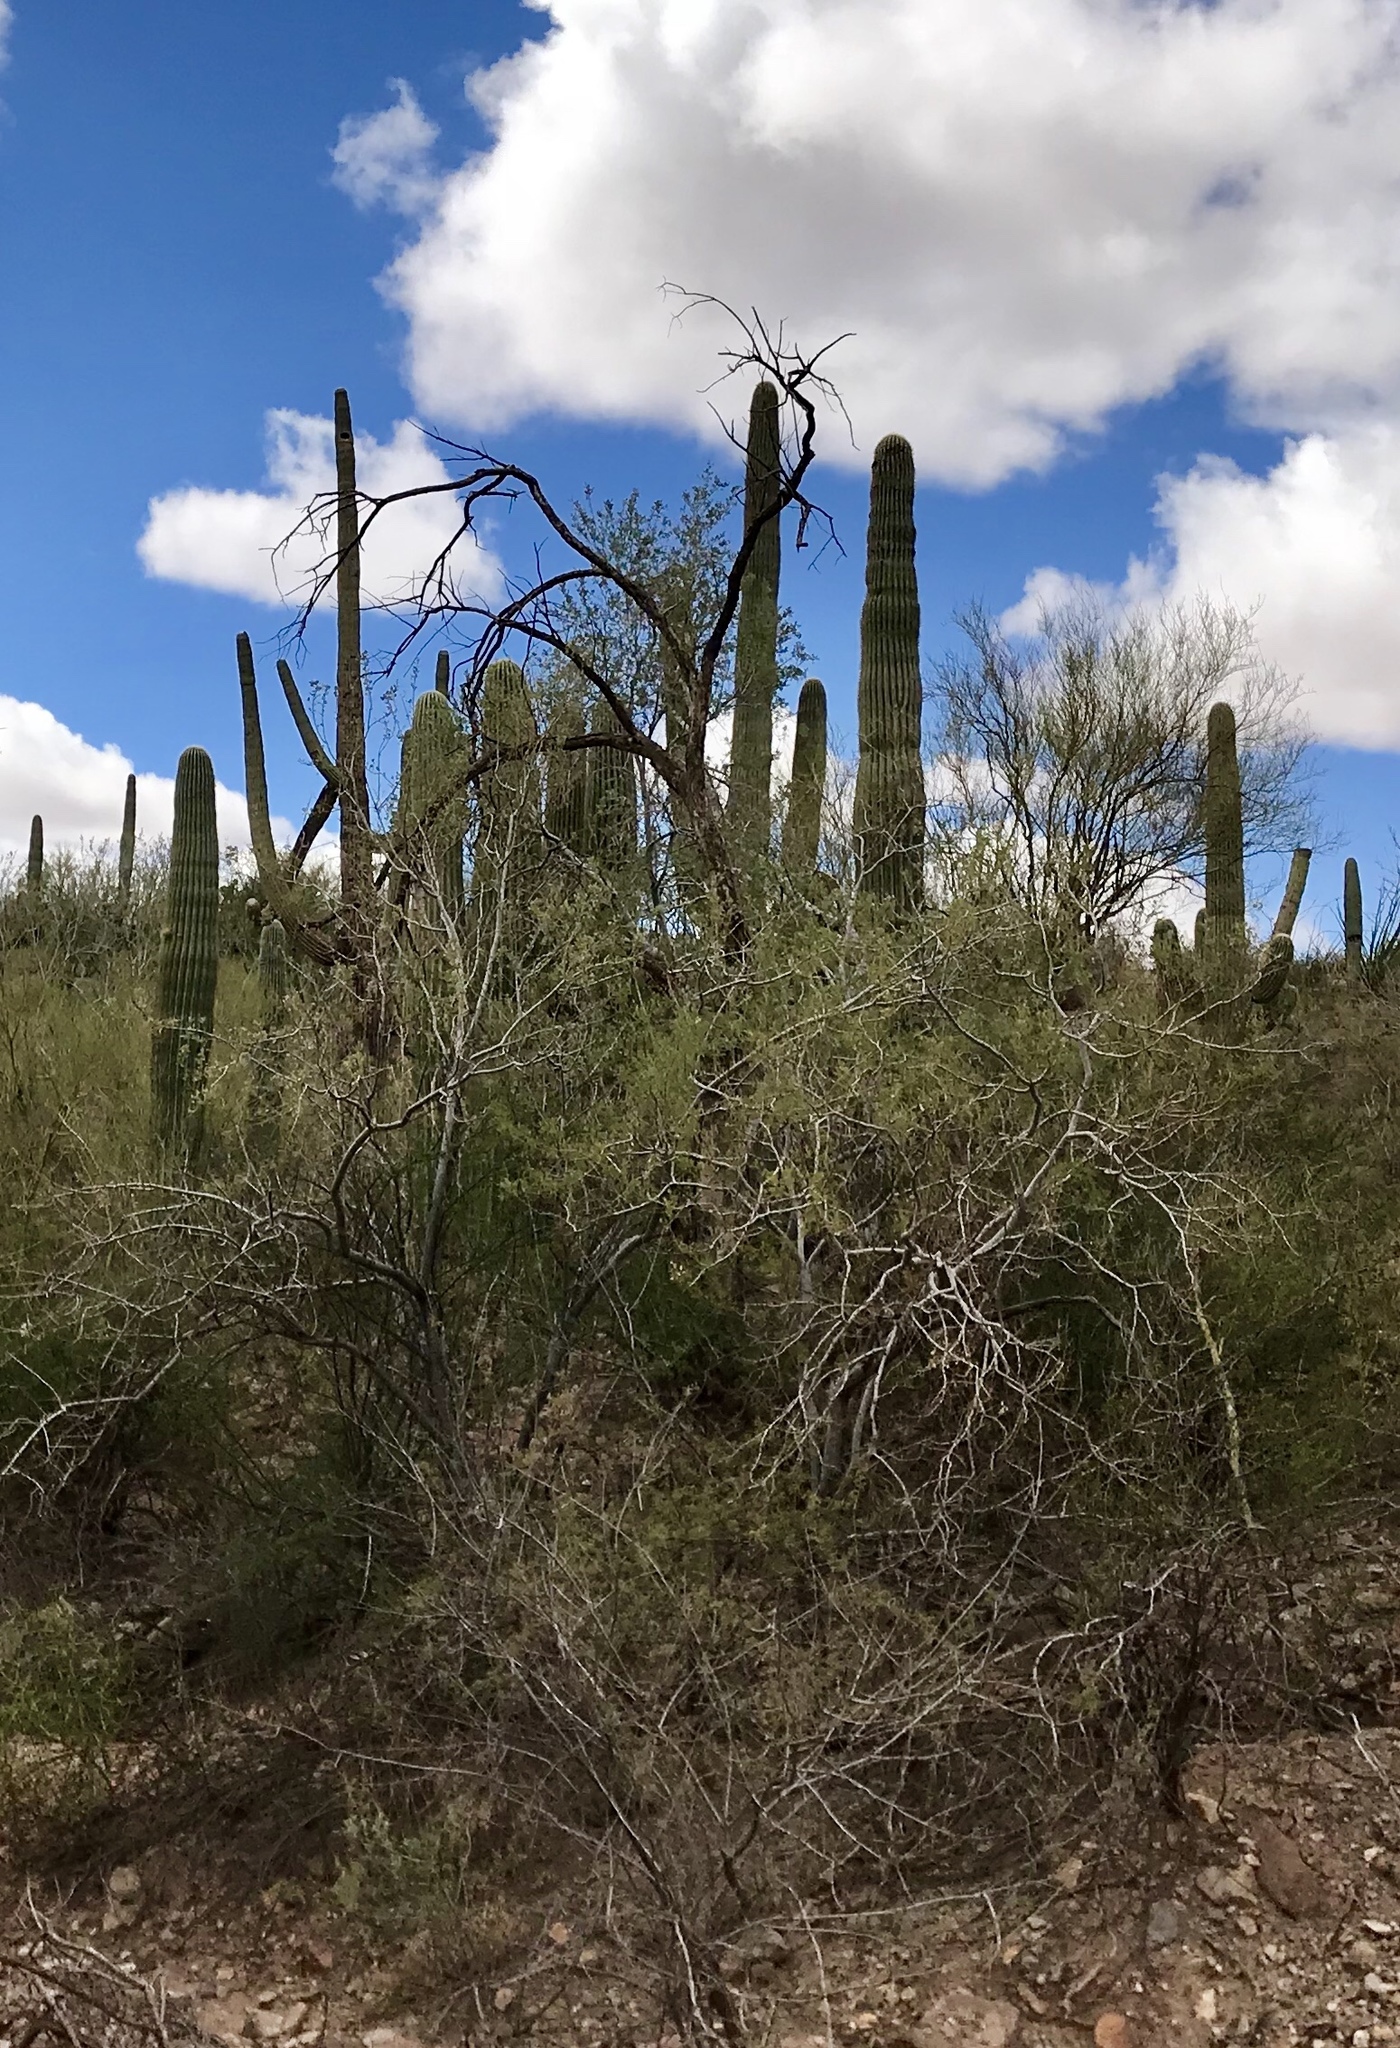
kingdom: Plantae
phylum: Tracheophyta
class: Magnoliopsida
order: Zygophyllales
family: Zygophyllaceae
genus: Larrea
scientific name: Larrea tridentata
